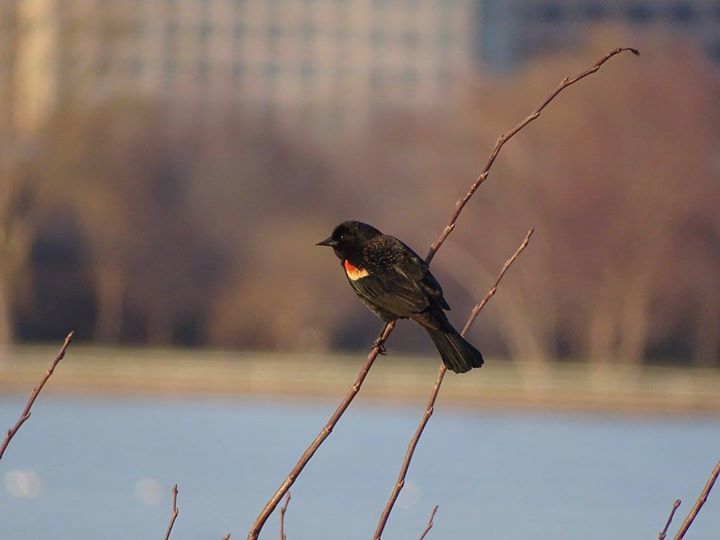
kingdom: Animalia
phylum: Chordata
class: Aves
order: Passeriformes
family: Icteridae
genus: Agelaius
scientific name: Agelaius phoeniceus
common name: Red-winged blackbird
